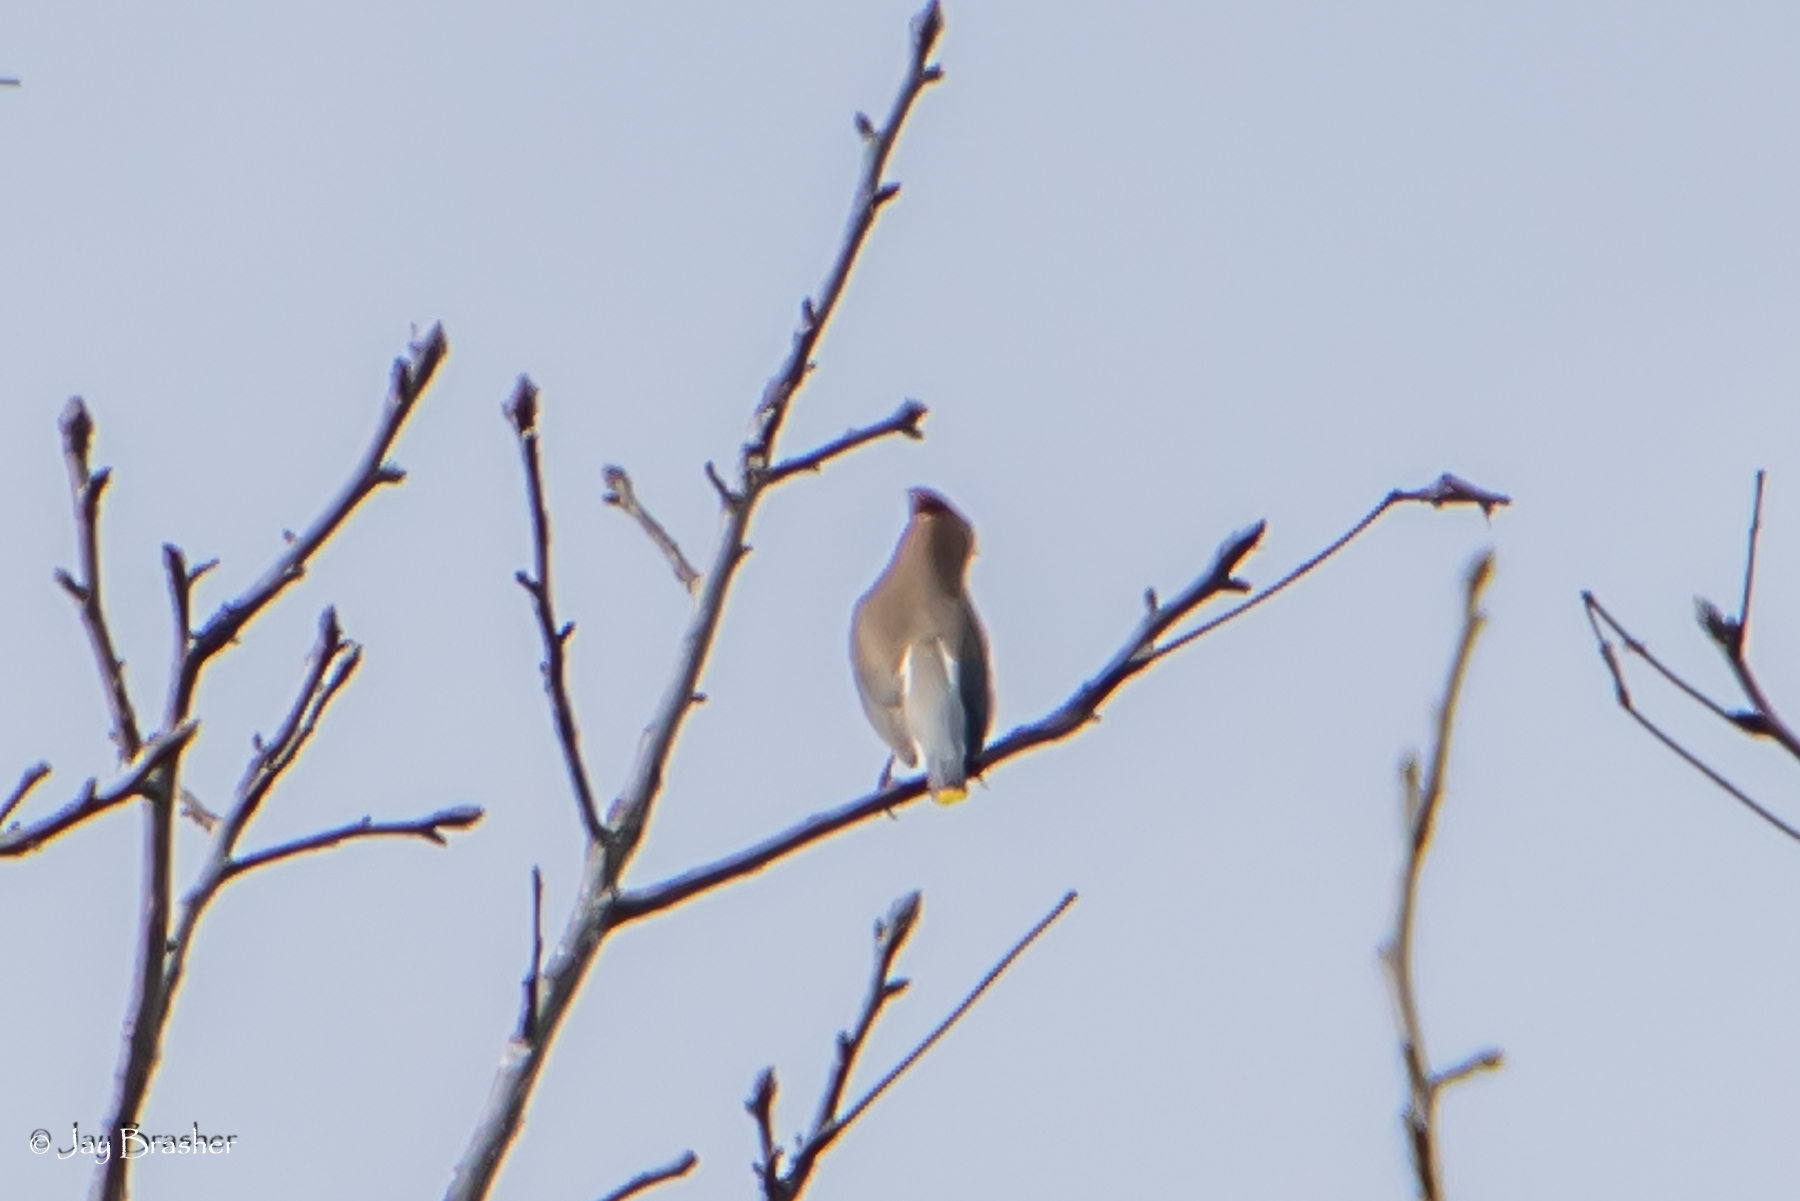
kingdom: Animalia
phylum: Chordata
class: Aves
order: Passeriformes
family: Bombycillidae
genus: Bombycilla
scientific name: Bombycilla cedrorum
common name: Cedar waxwing
